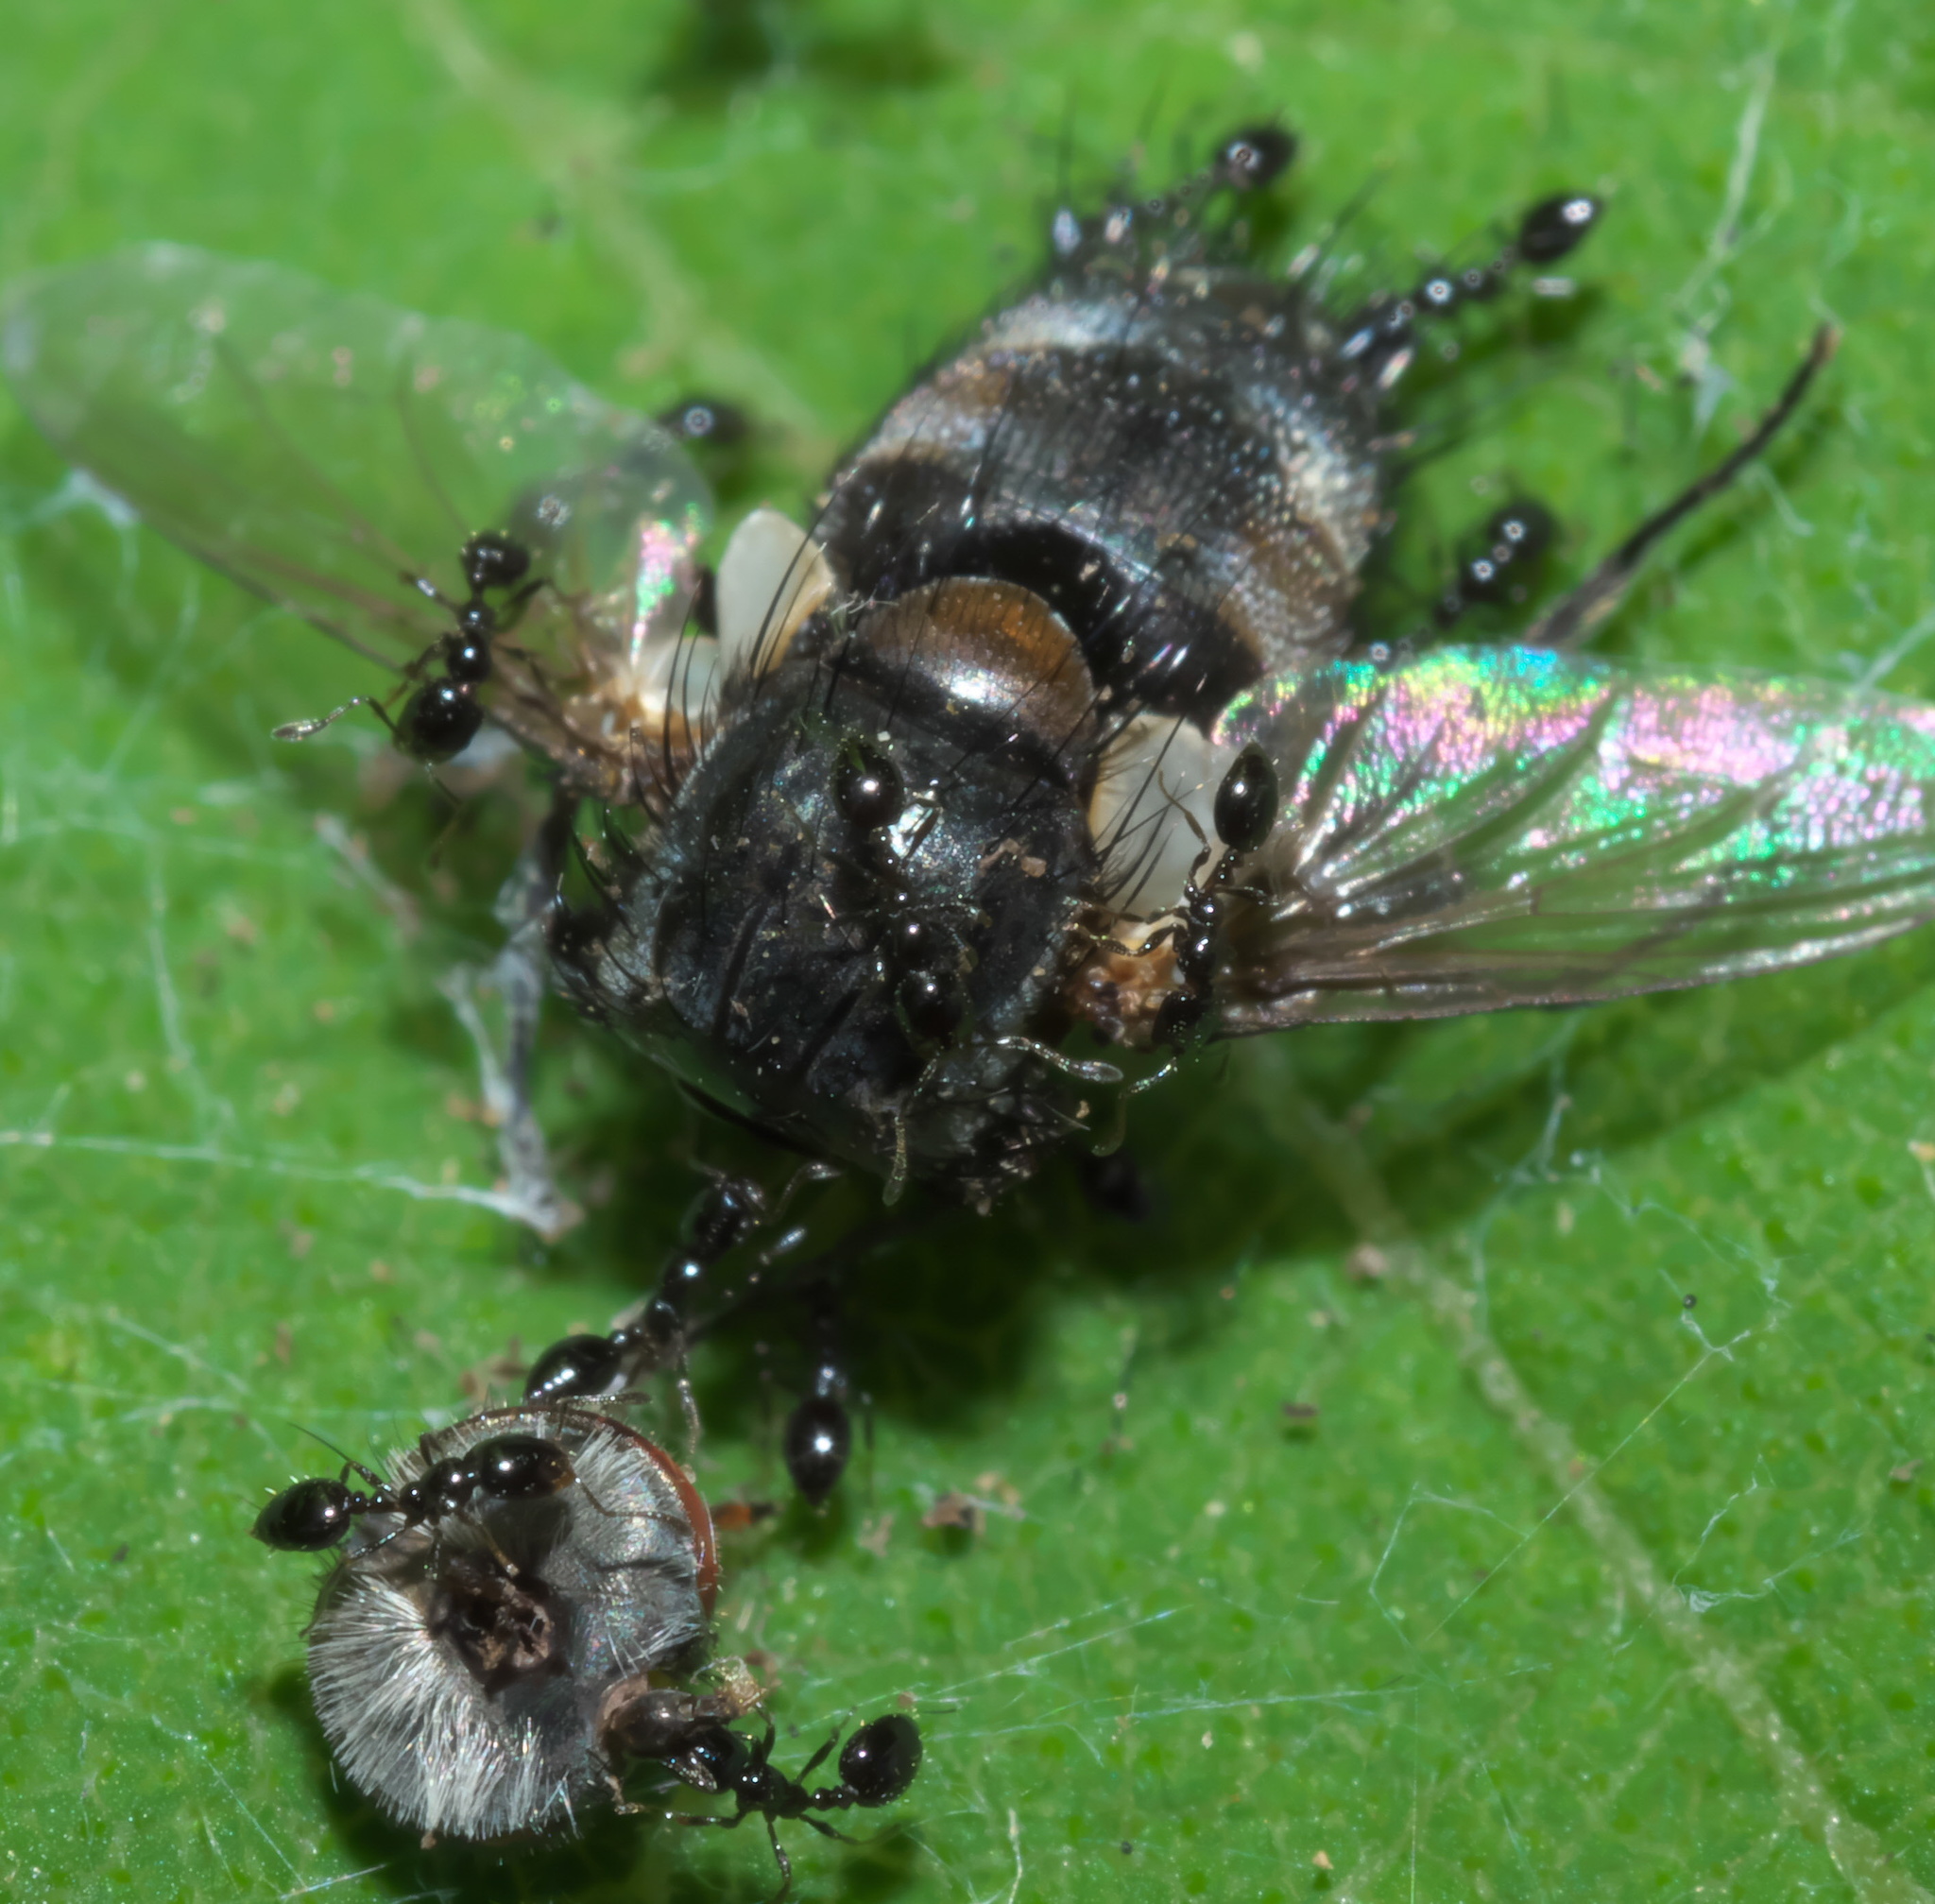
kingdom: Animalia
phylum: Arthropoda
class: Insecta
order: Hymenoptera
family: Formicidae
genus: Monomorium
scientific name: Monomorium minimum
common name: Little black ant
